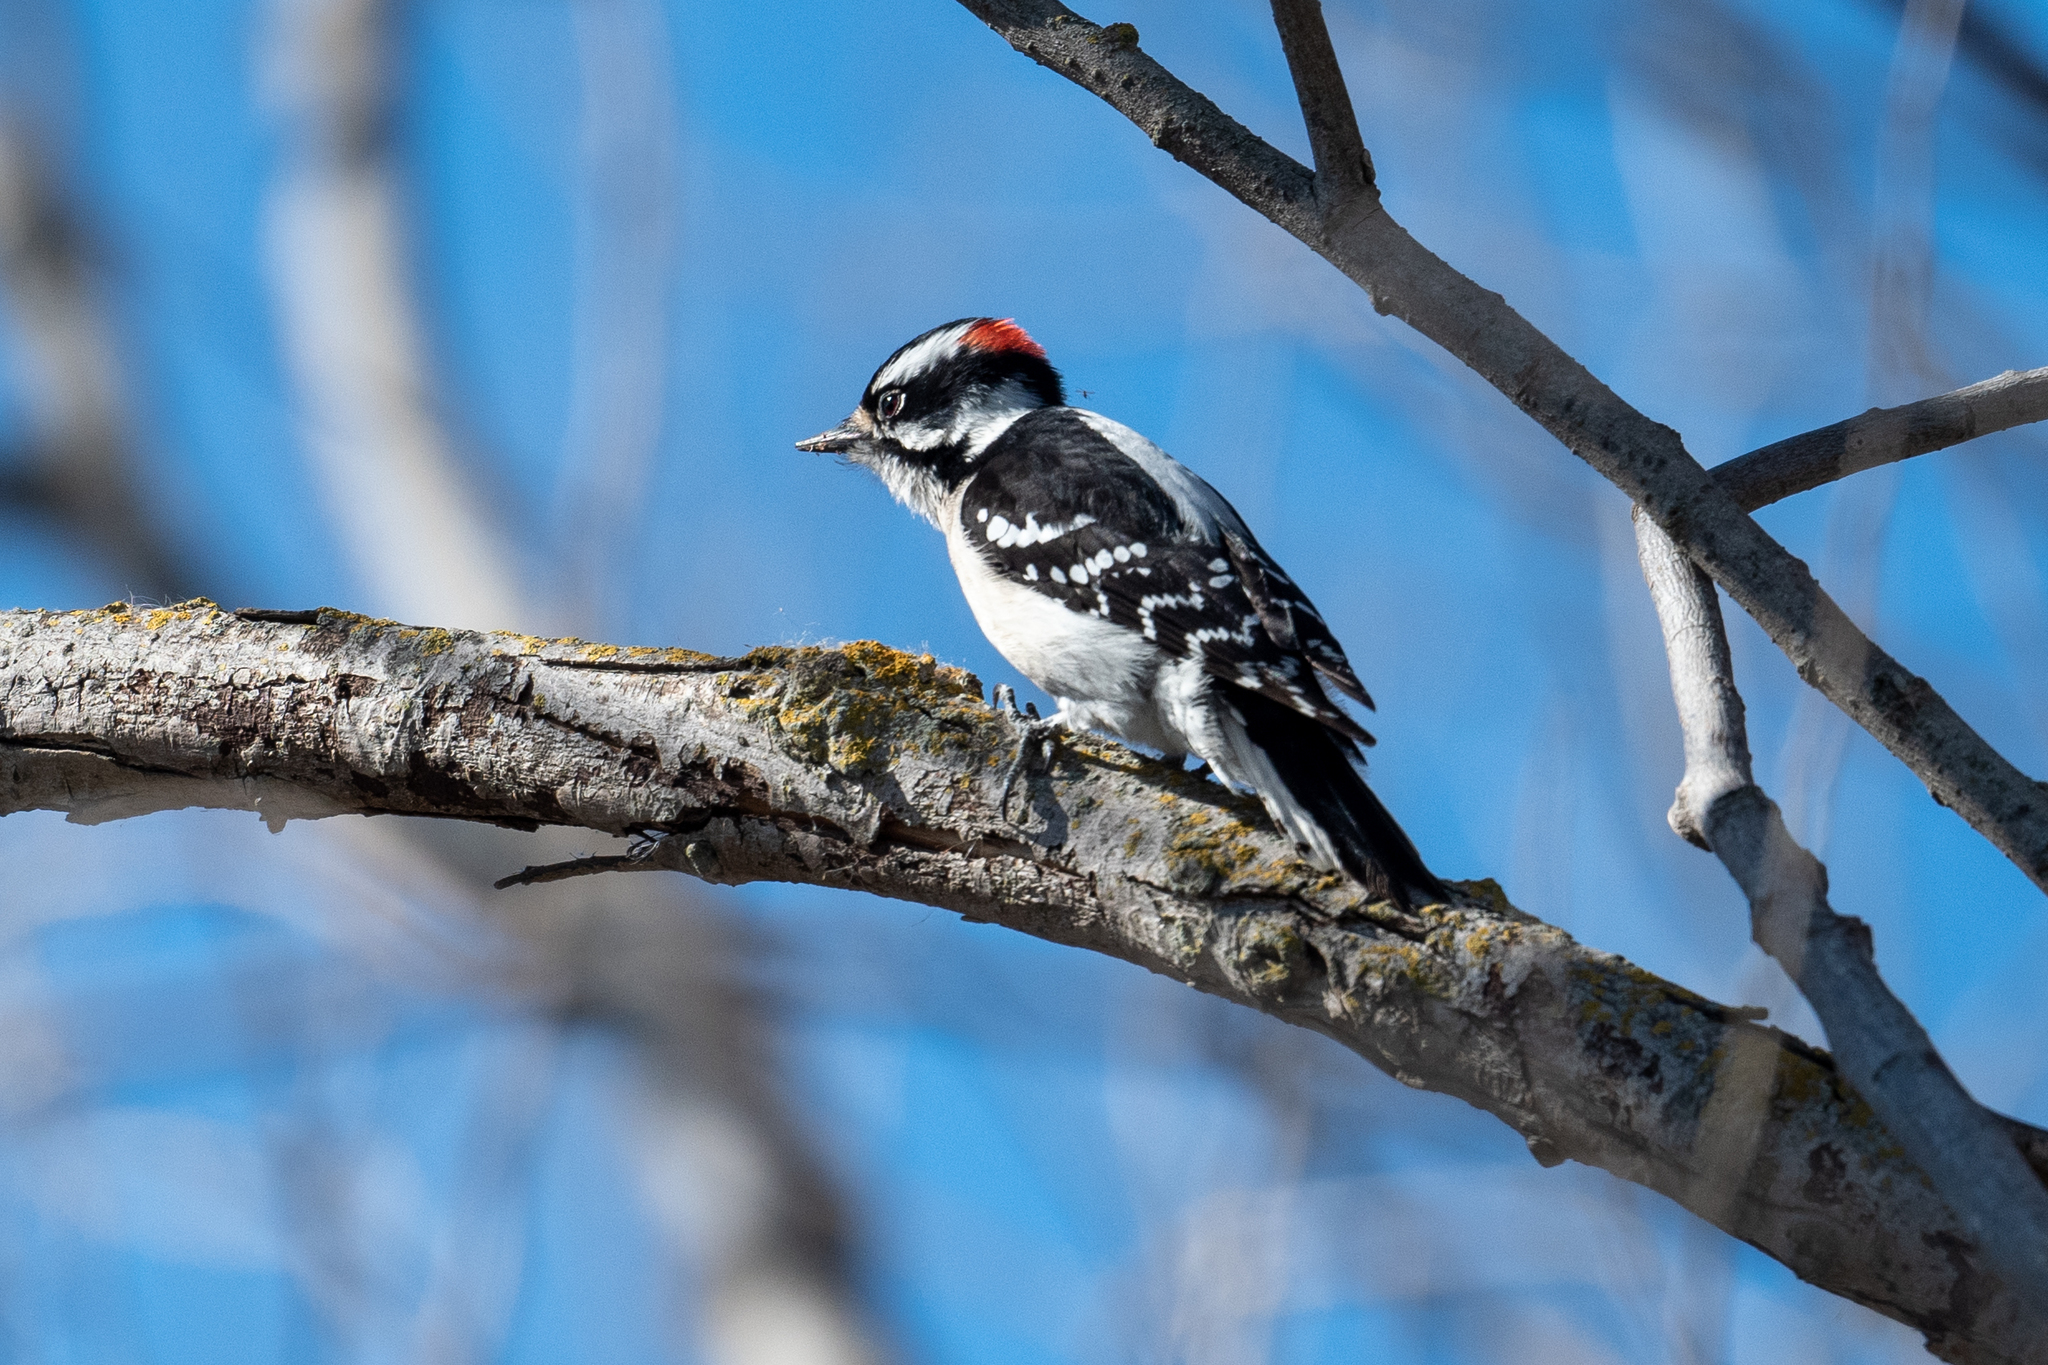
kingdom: Animalia
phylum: Chordata
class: Aves
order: Piciformes
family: Picidae
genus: Dryobates
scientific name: Dryobates pubescens
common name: Downy woodpecker
